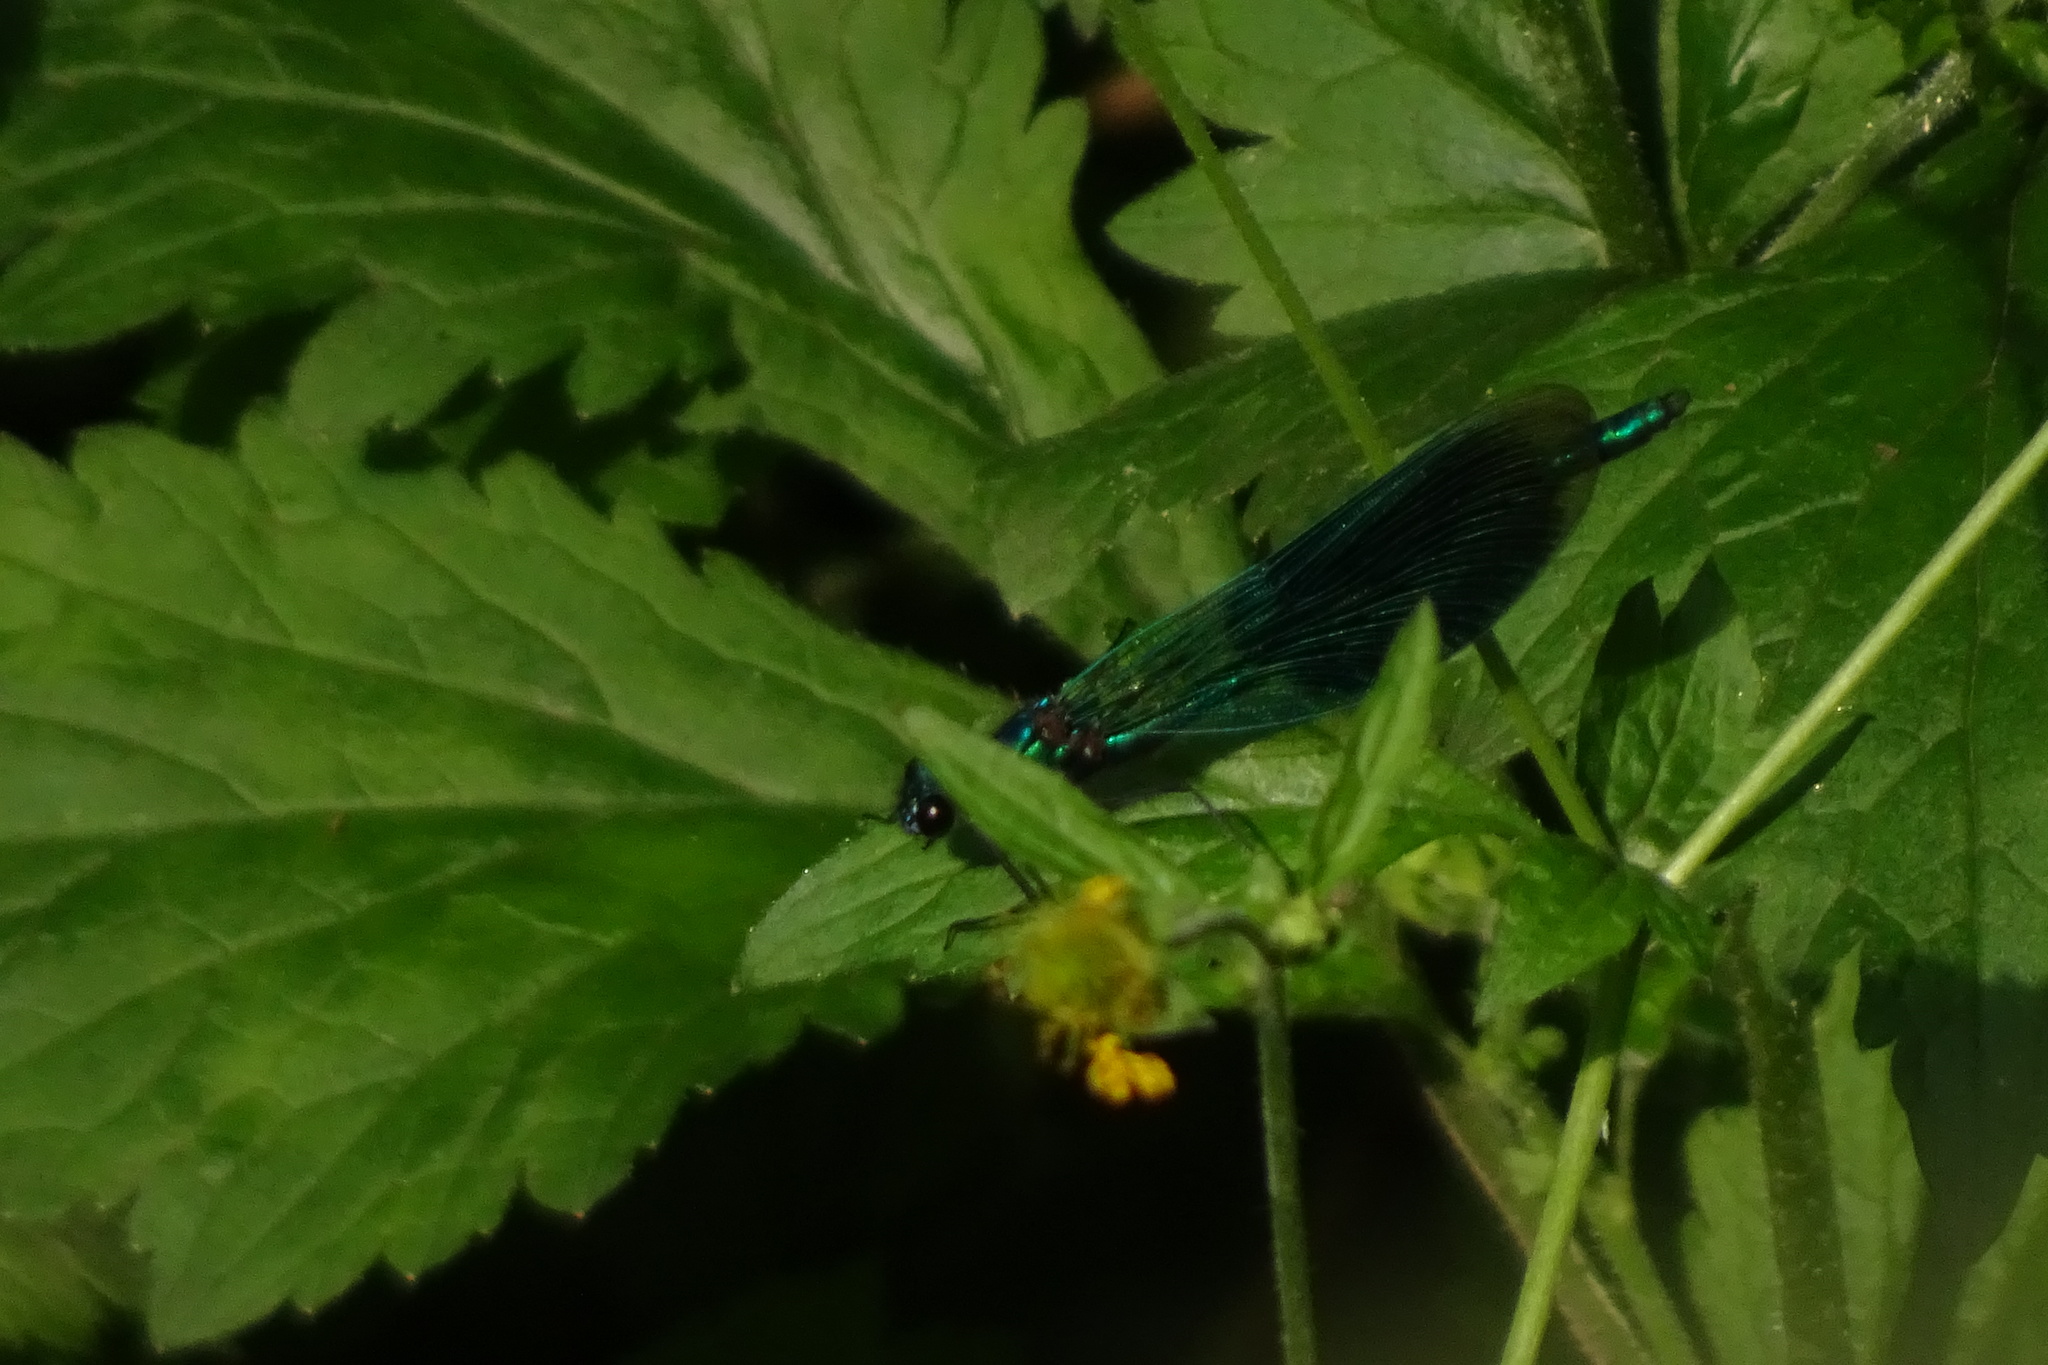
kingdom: Animalia
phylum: Arthropoda
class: Insecta
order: Odonata
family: Calopterygidae
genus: Calopteryx
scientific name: Calopteryx splendens
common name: Banded demoiselle
